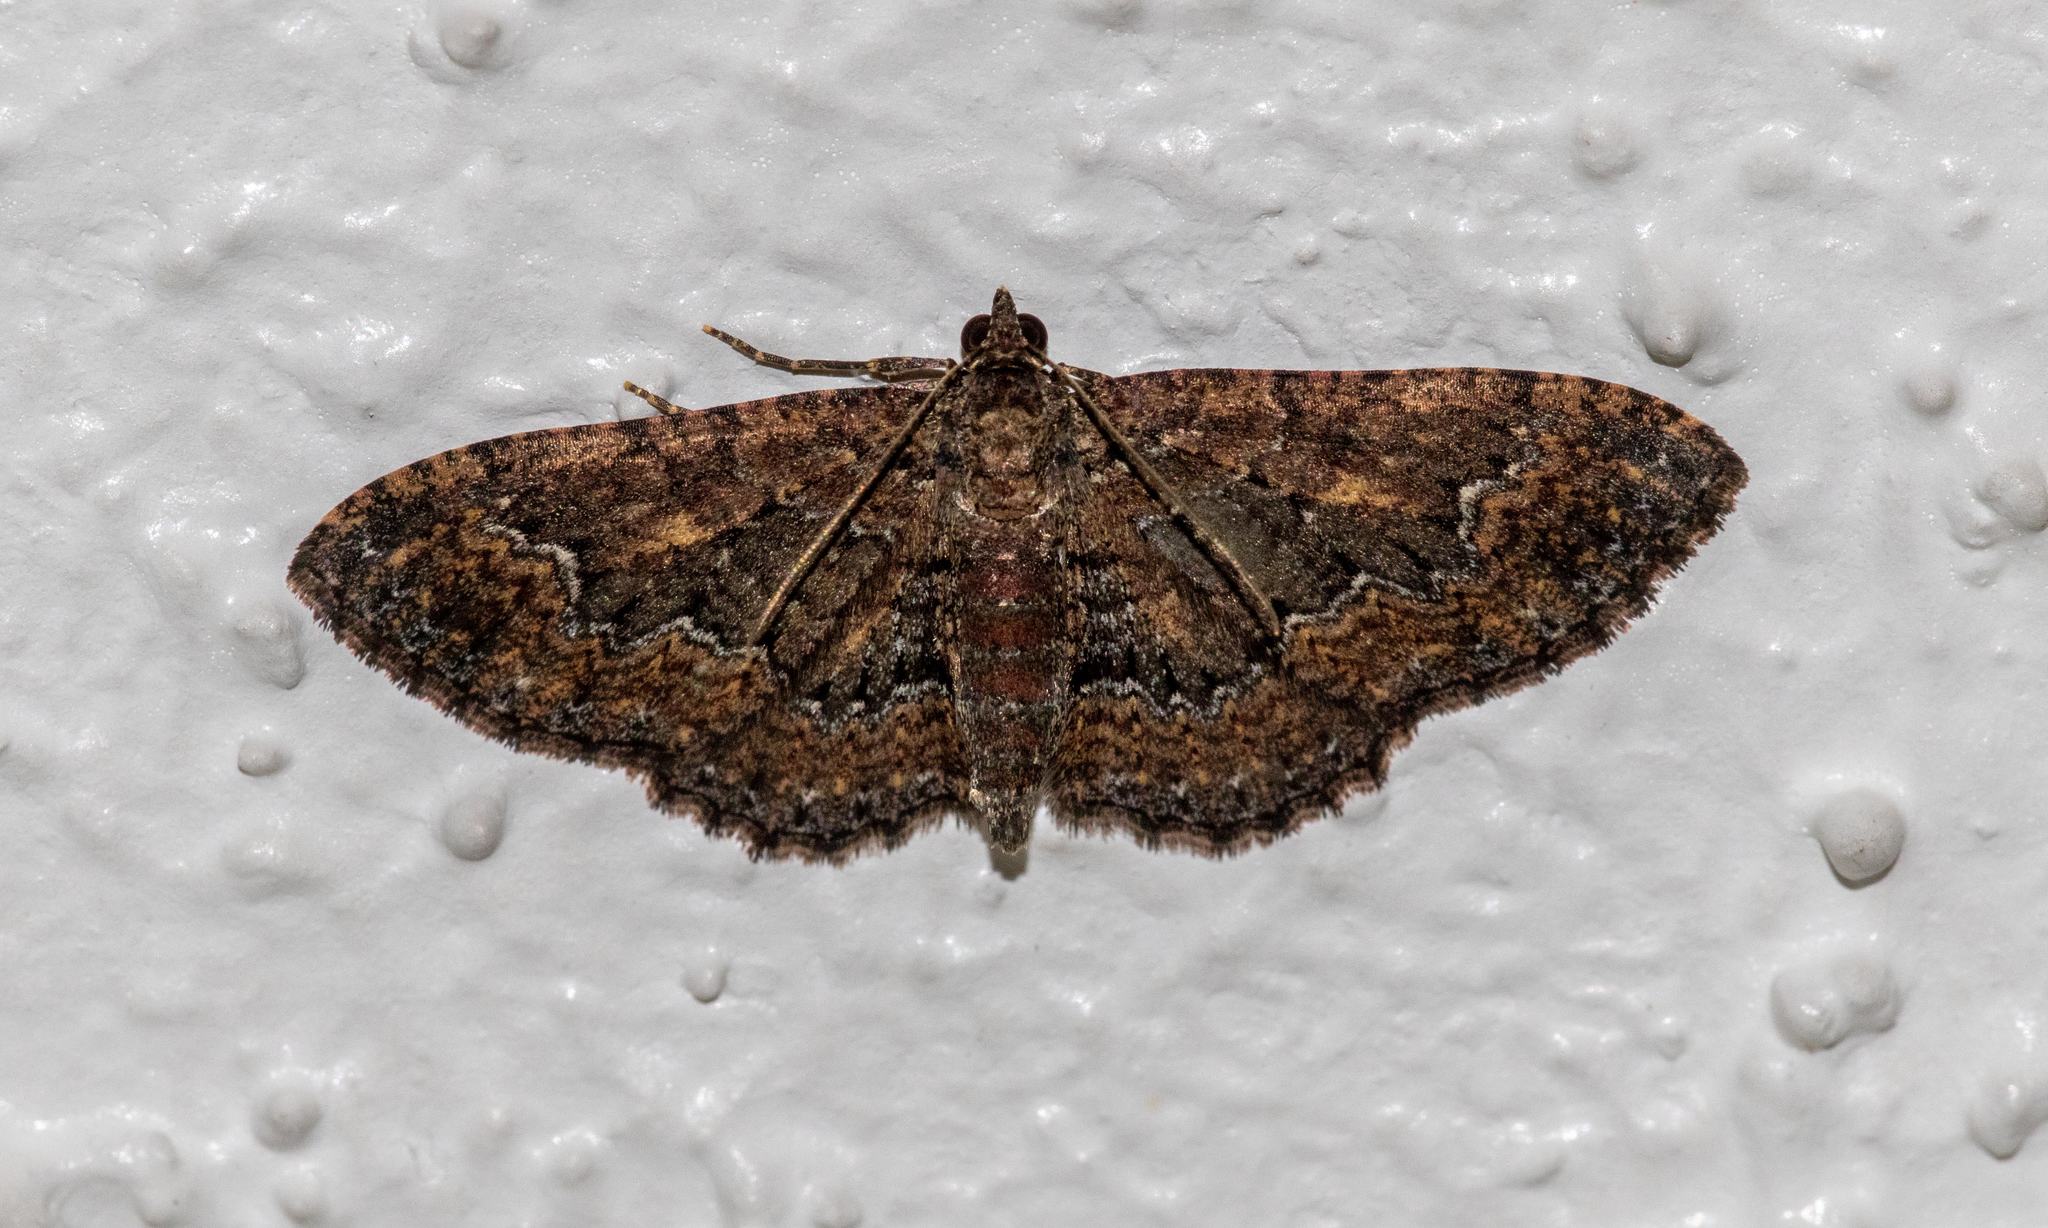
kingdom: Animalia
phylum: Arthropoda
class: Insecta
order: Lepidoptera
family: Geometridae
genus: Disclisioprocta
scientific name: Disclisioprocta stellata
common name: Somber carpet
